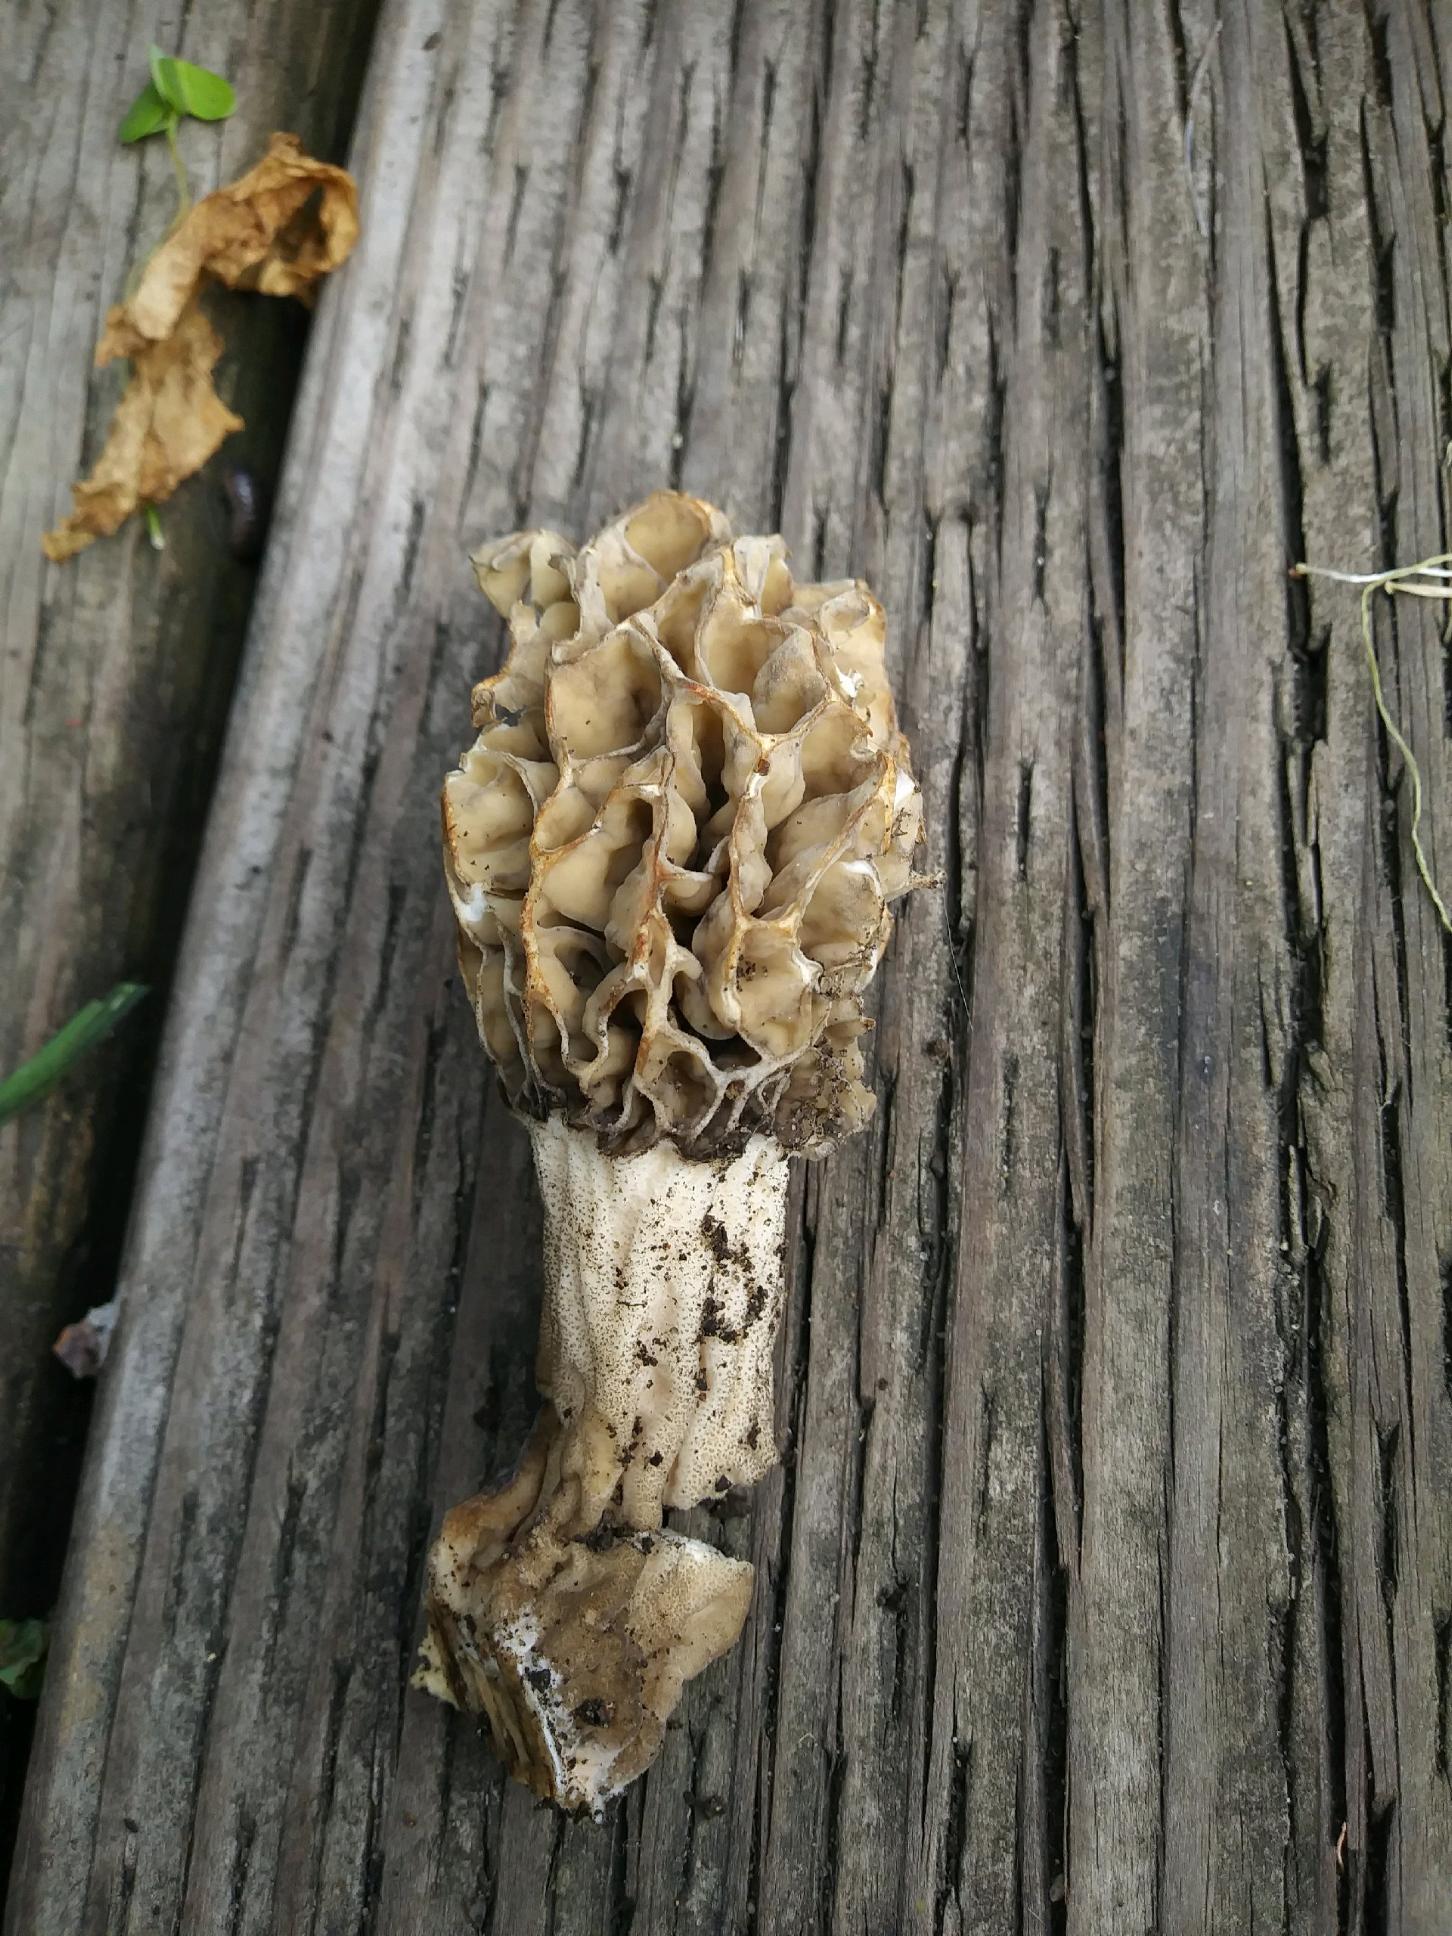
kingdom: Fungi
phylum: Ascomycota
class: Pezizomycetes
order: Pezizales
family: Morchellaceae
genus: Morchella
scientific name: Morchella rufobrunnea
